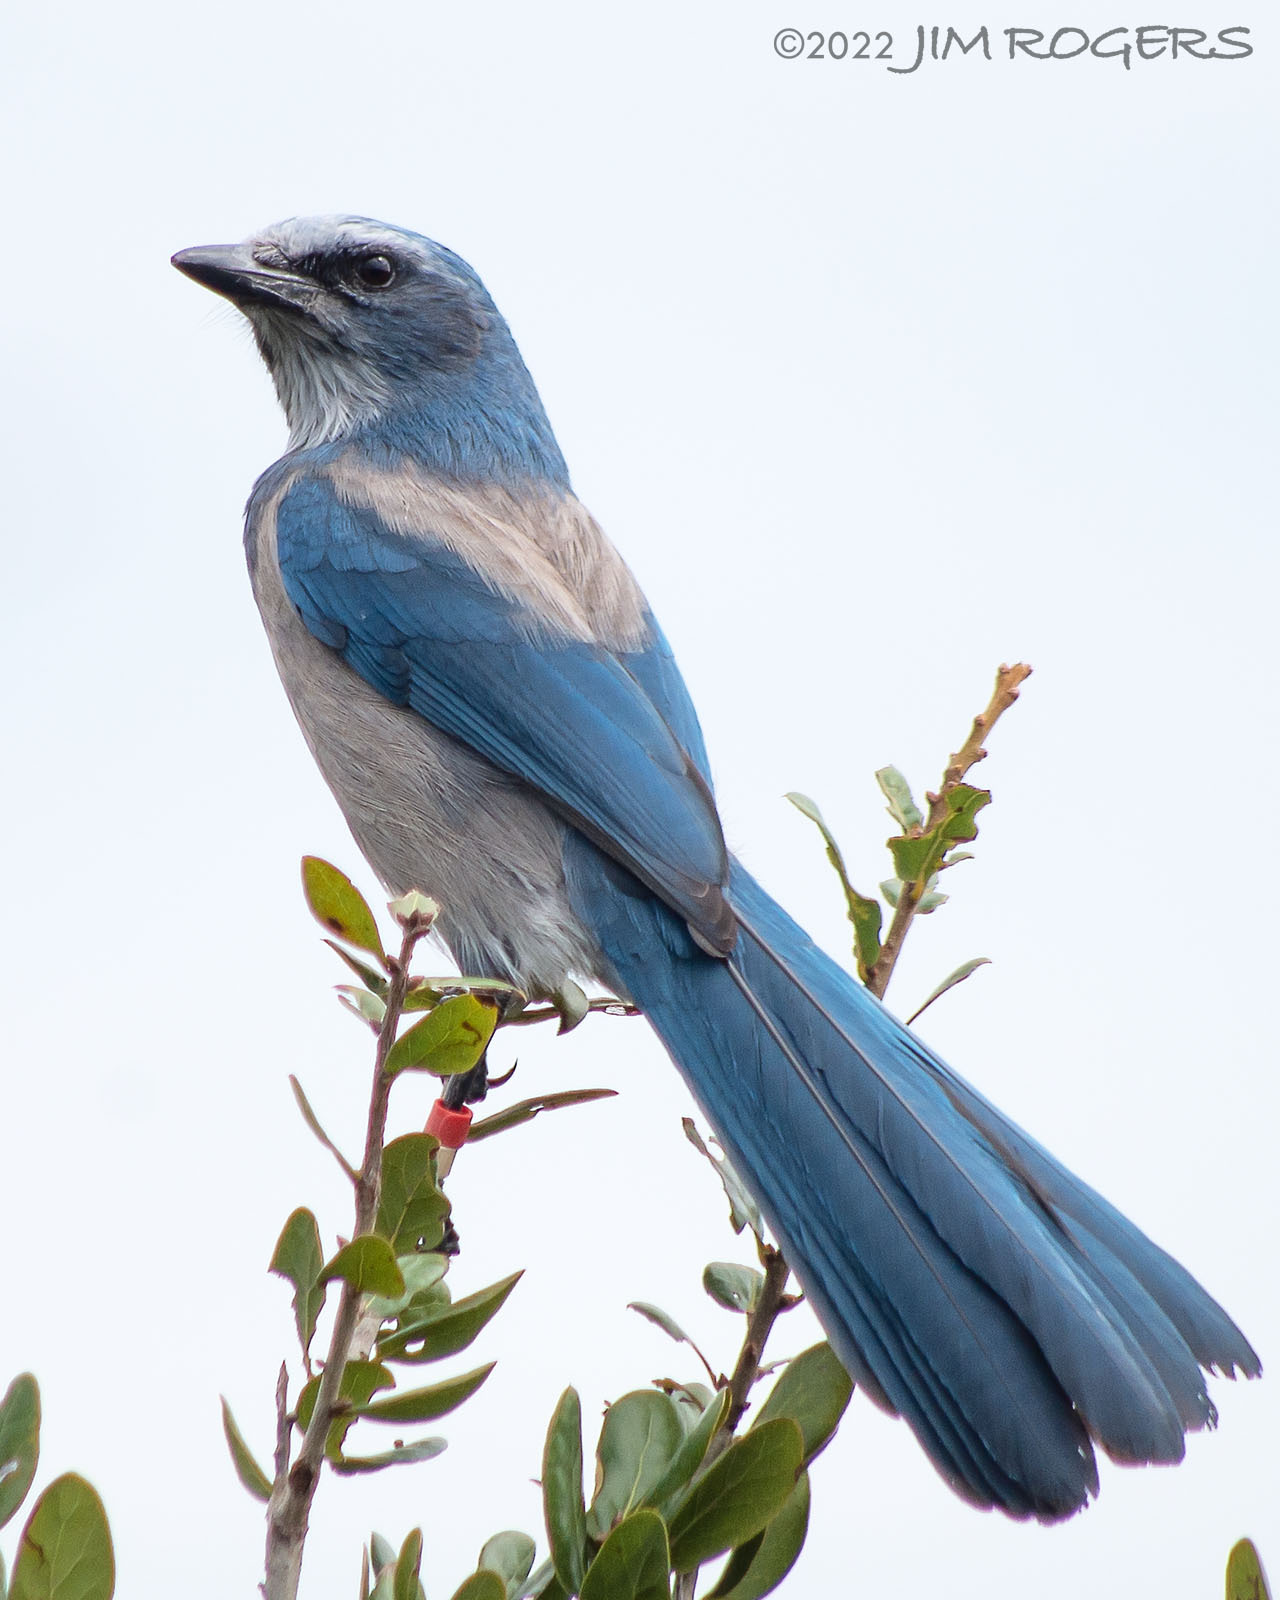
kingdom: Animalia
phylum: Chordata
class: Aves
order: Passeriformes
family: Corvidae
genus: Aphelocoma
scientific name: Aphelocoma coerulescens
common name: Florida scrub jay
